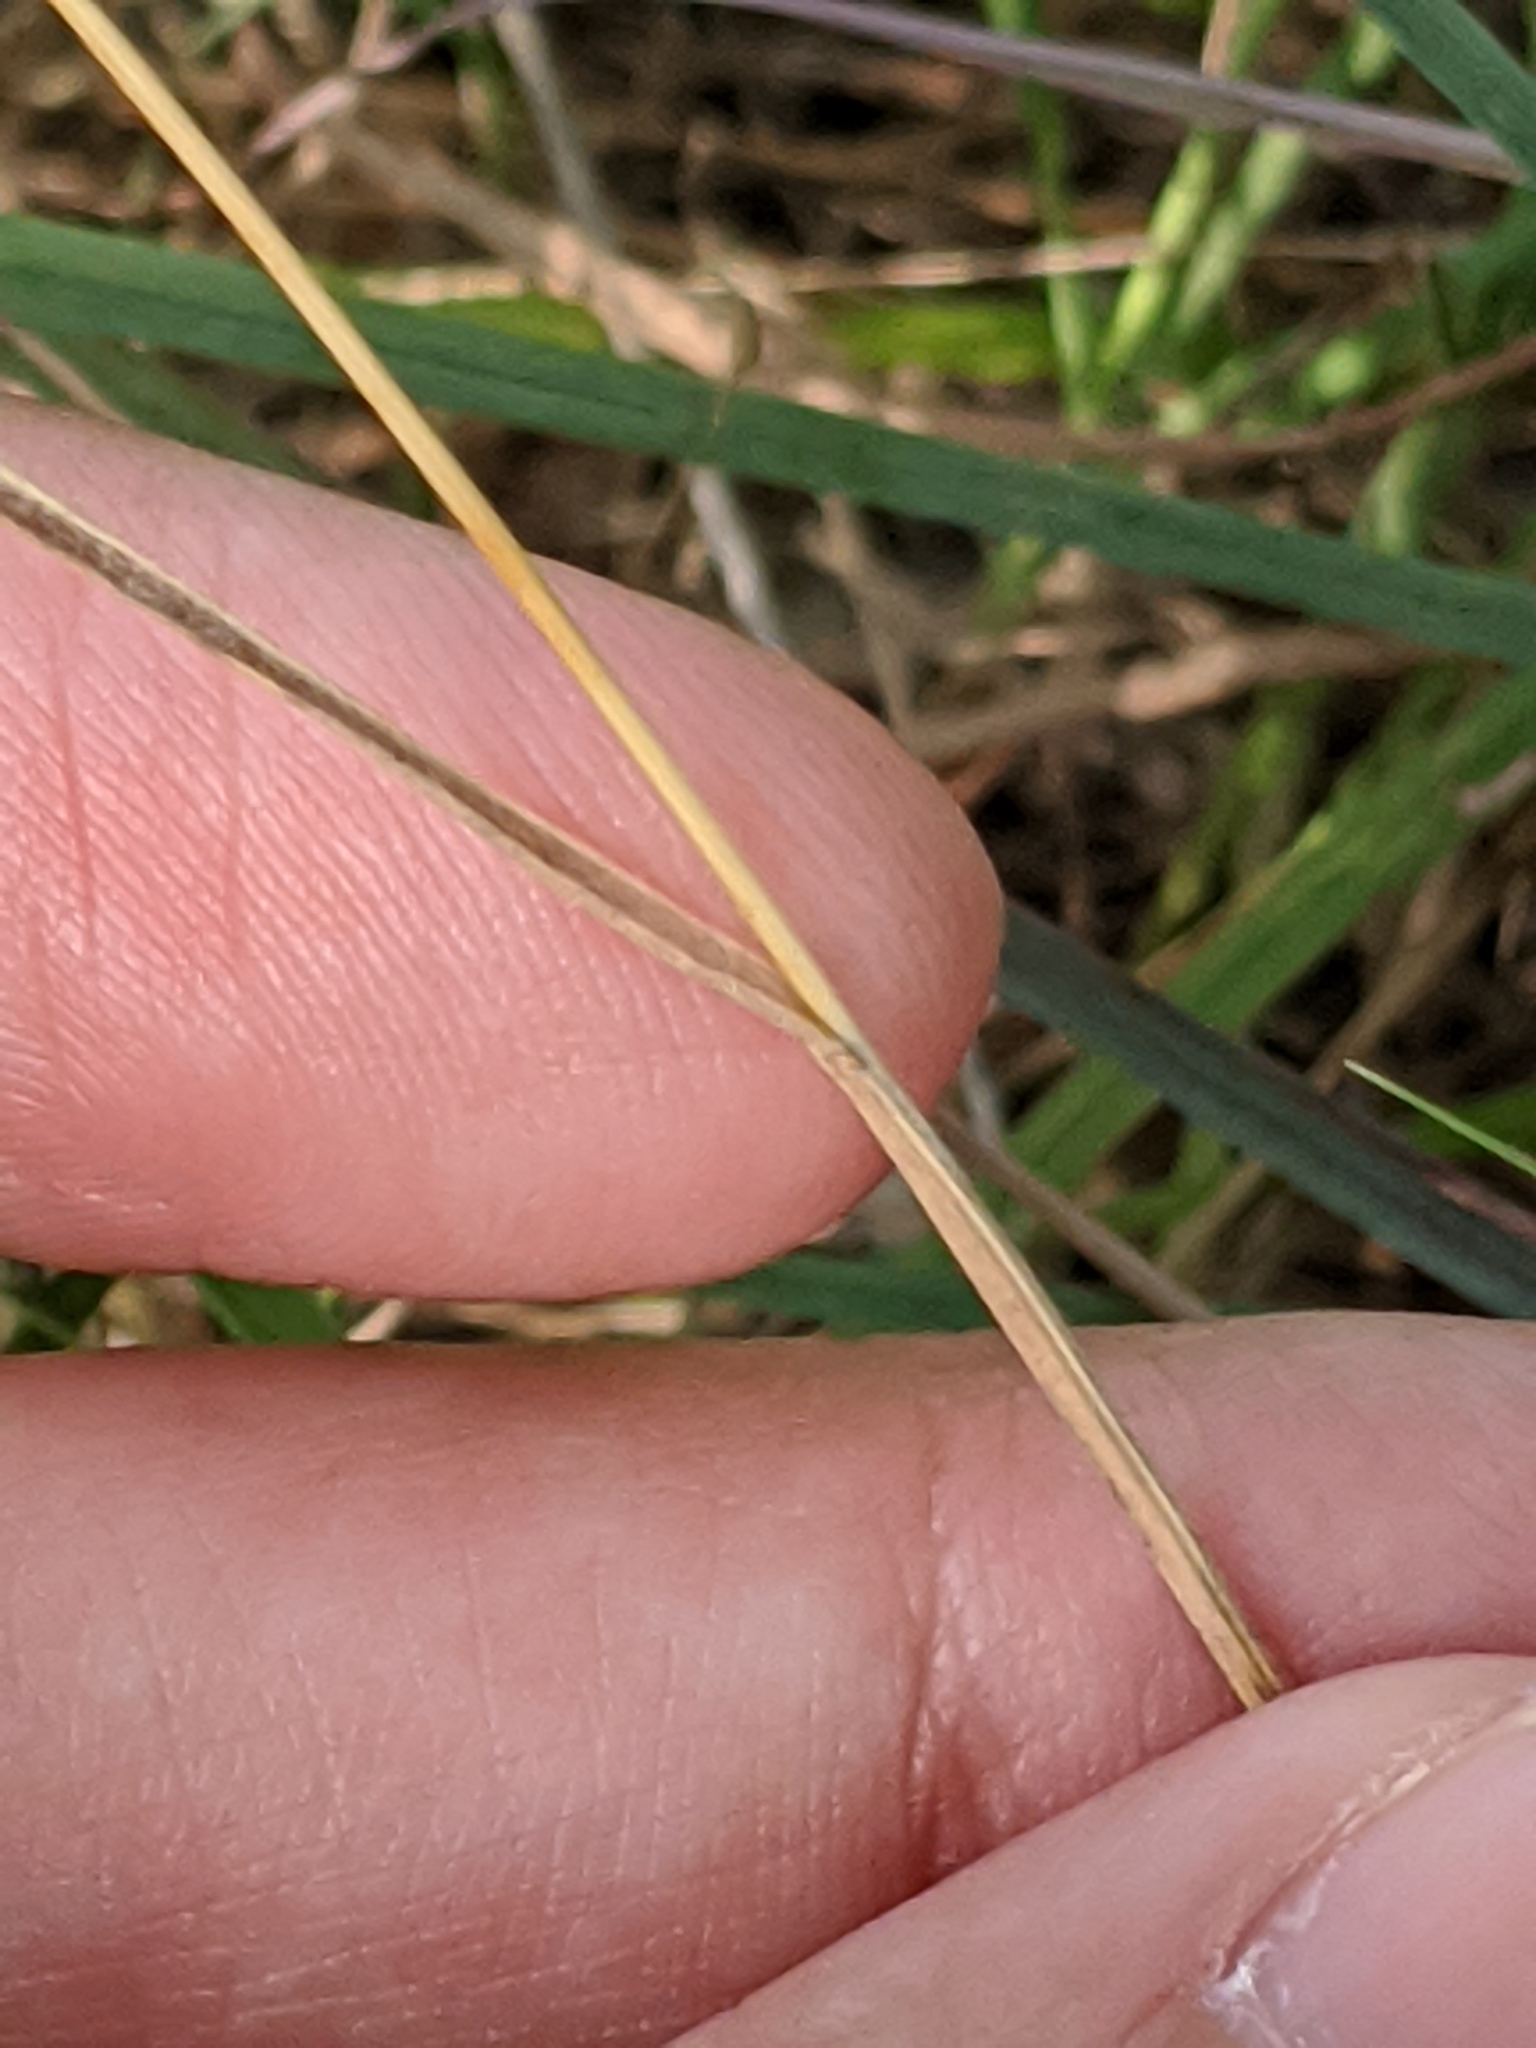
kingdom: Plantae
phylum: Tracheophyta
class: Liliopsida
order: Poales
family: Poaceae
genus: Bromus
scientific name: Bromus japonicus
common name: Japanese brome
